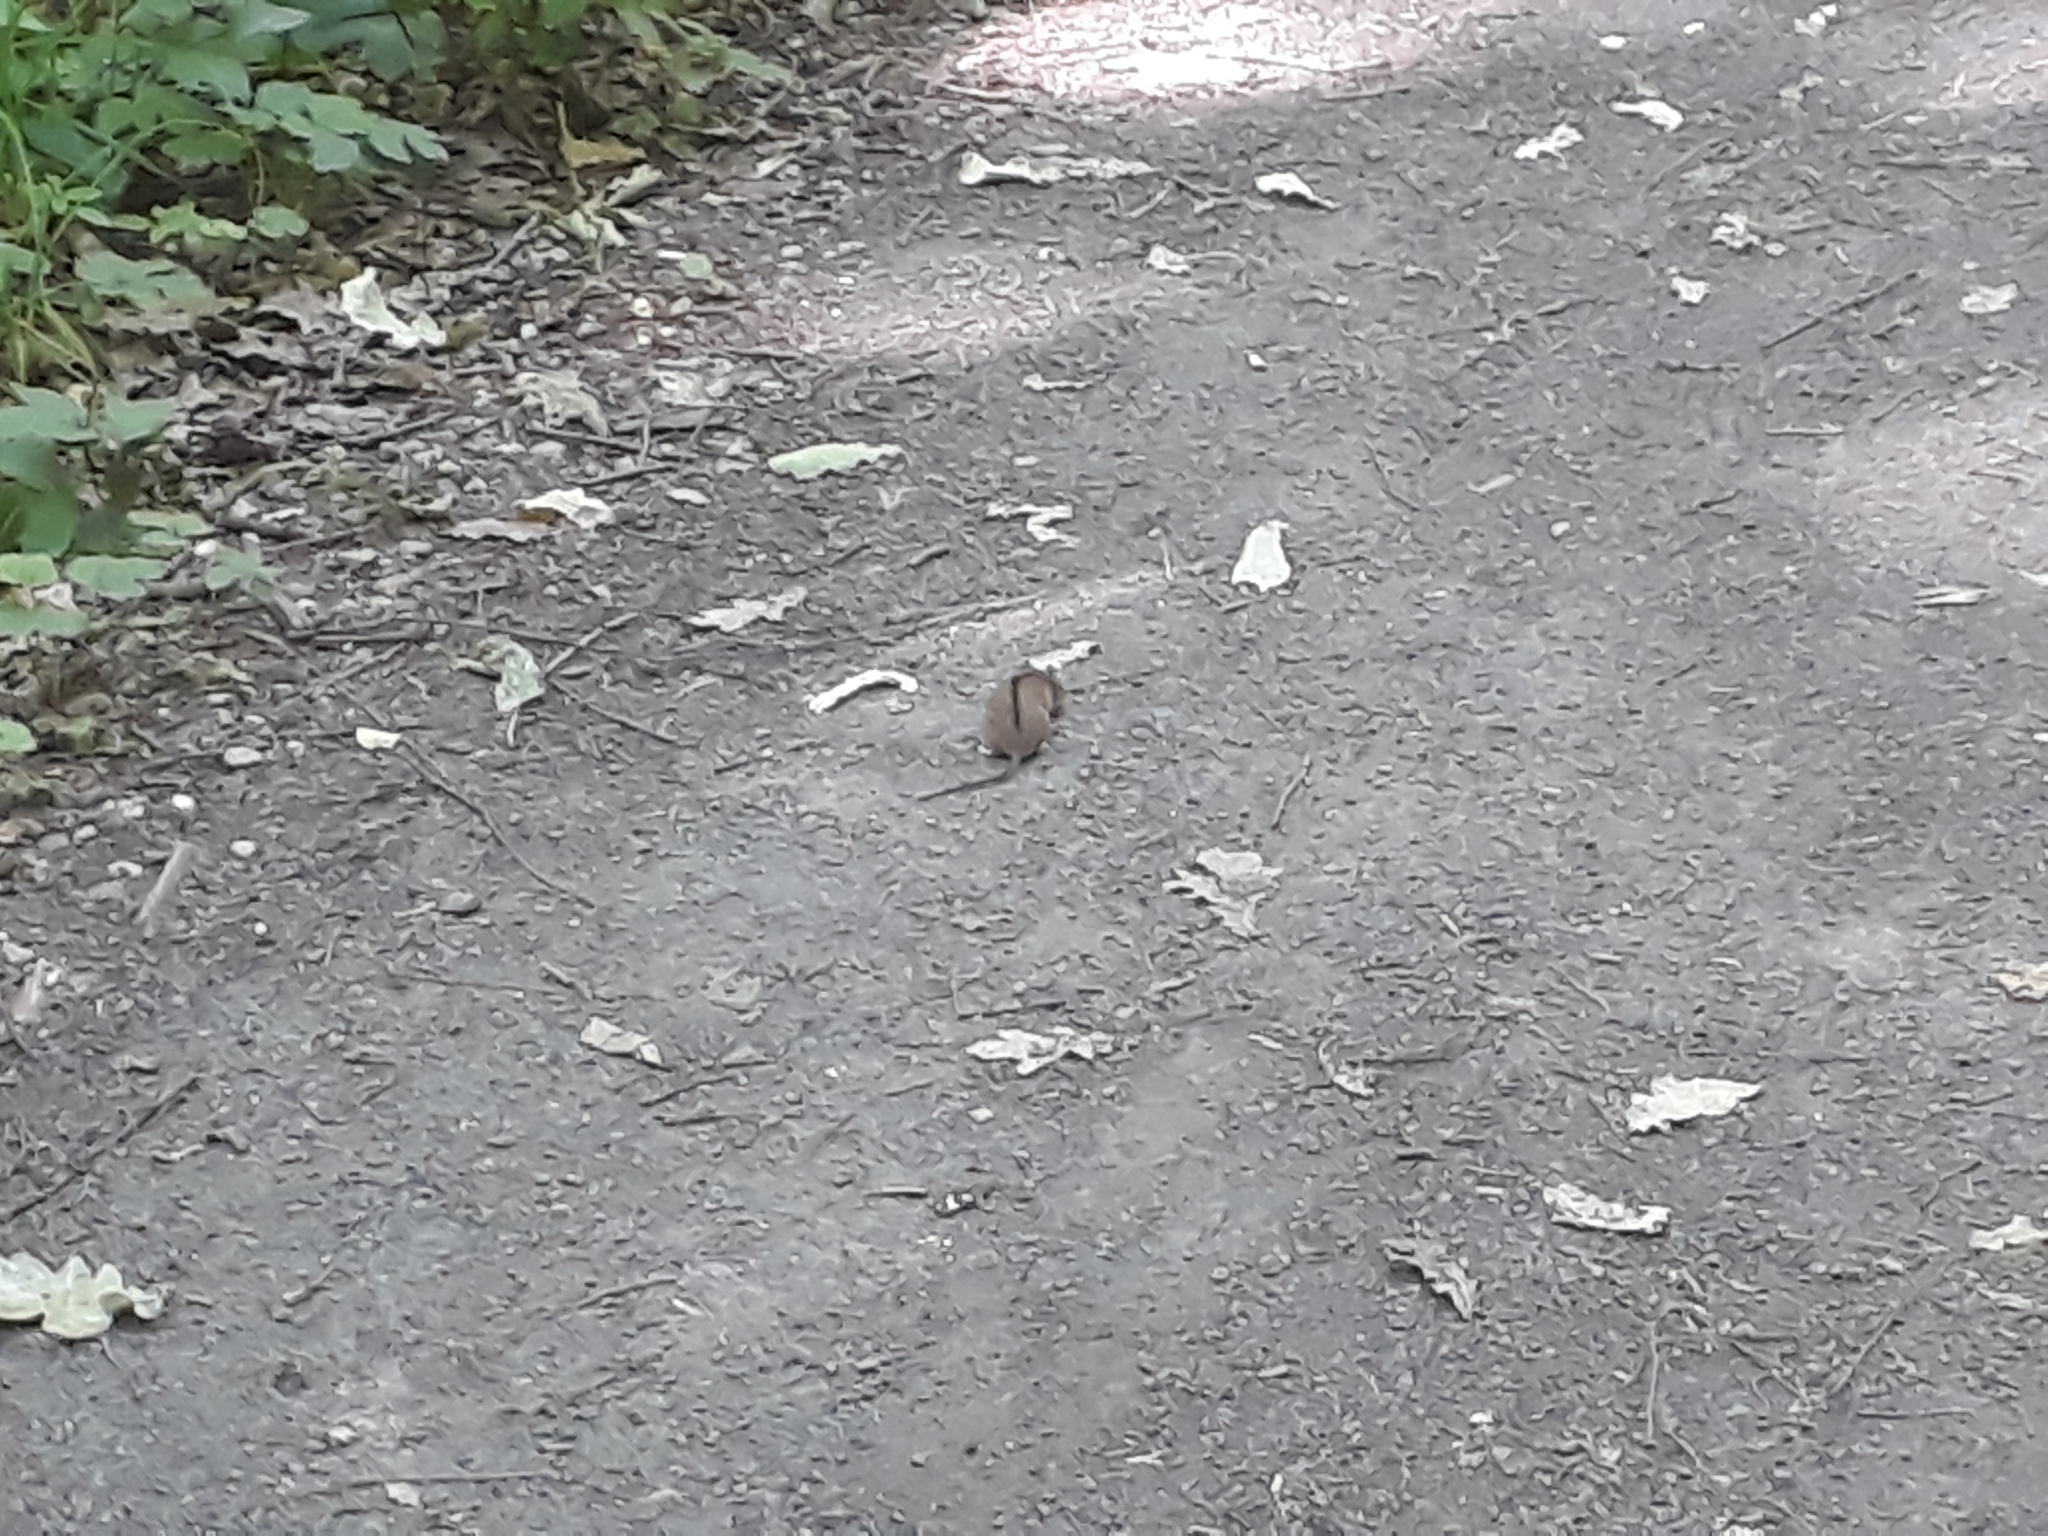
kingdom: Animalia
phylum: Chordata
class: Mammalia
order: Rodentia
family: Muridae
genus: Apodemus
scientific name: Apodemus agrarius
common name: Striped field mouse
